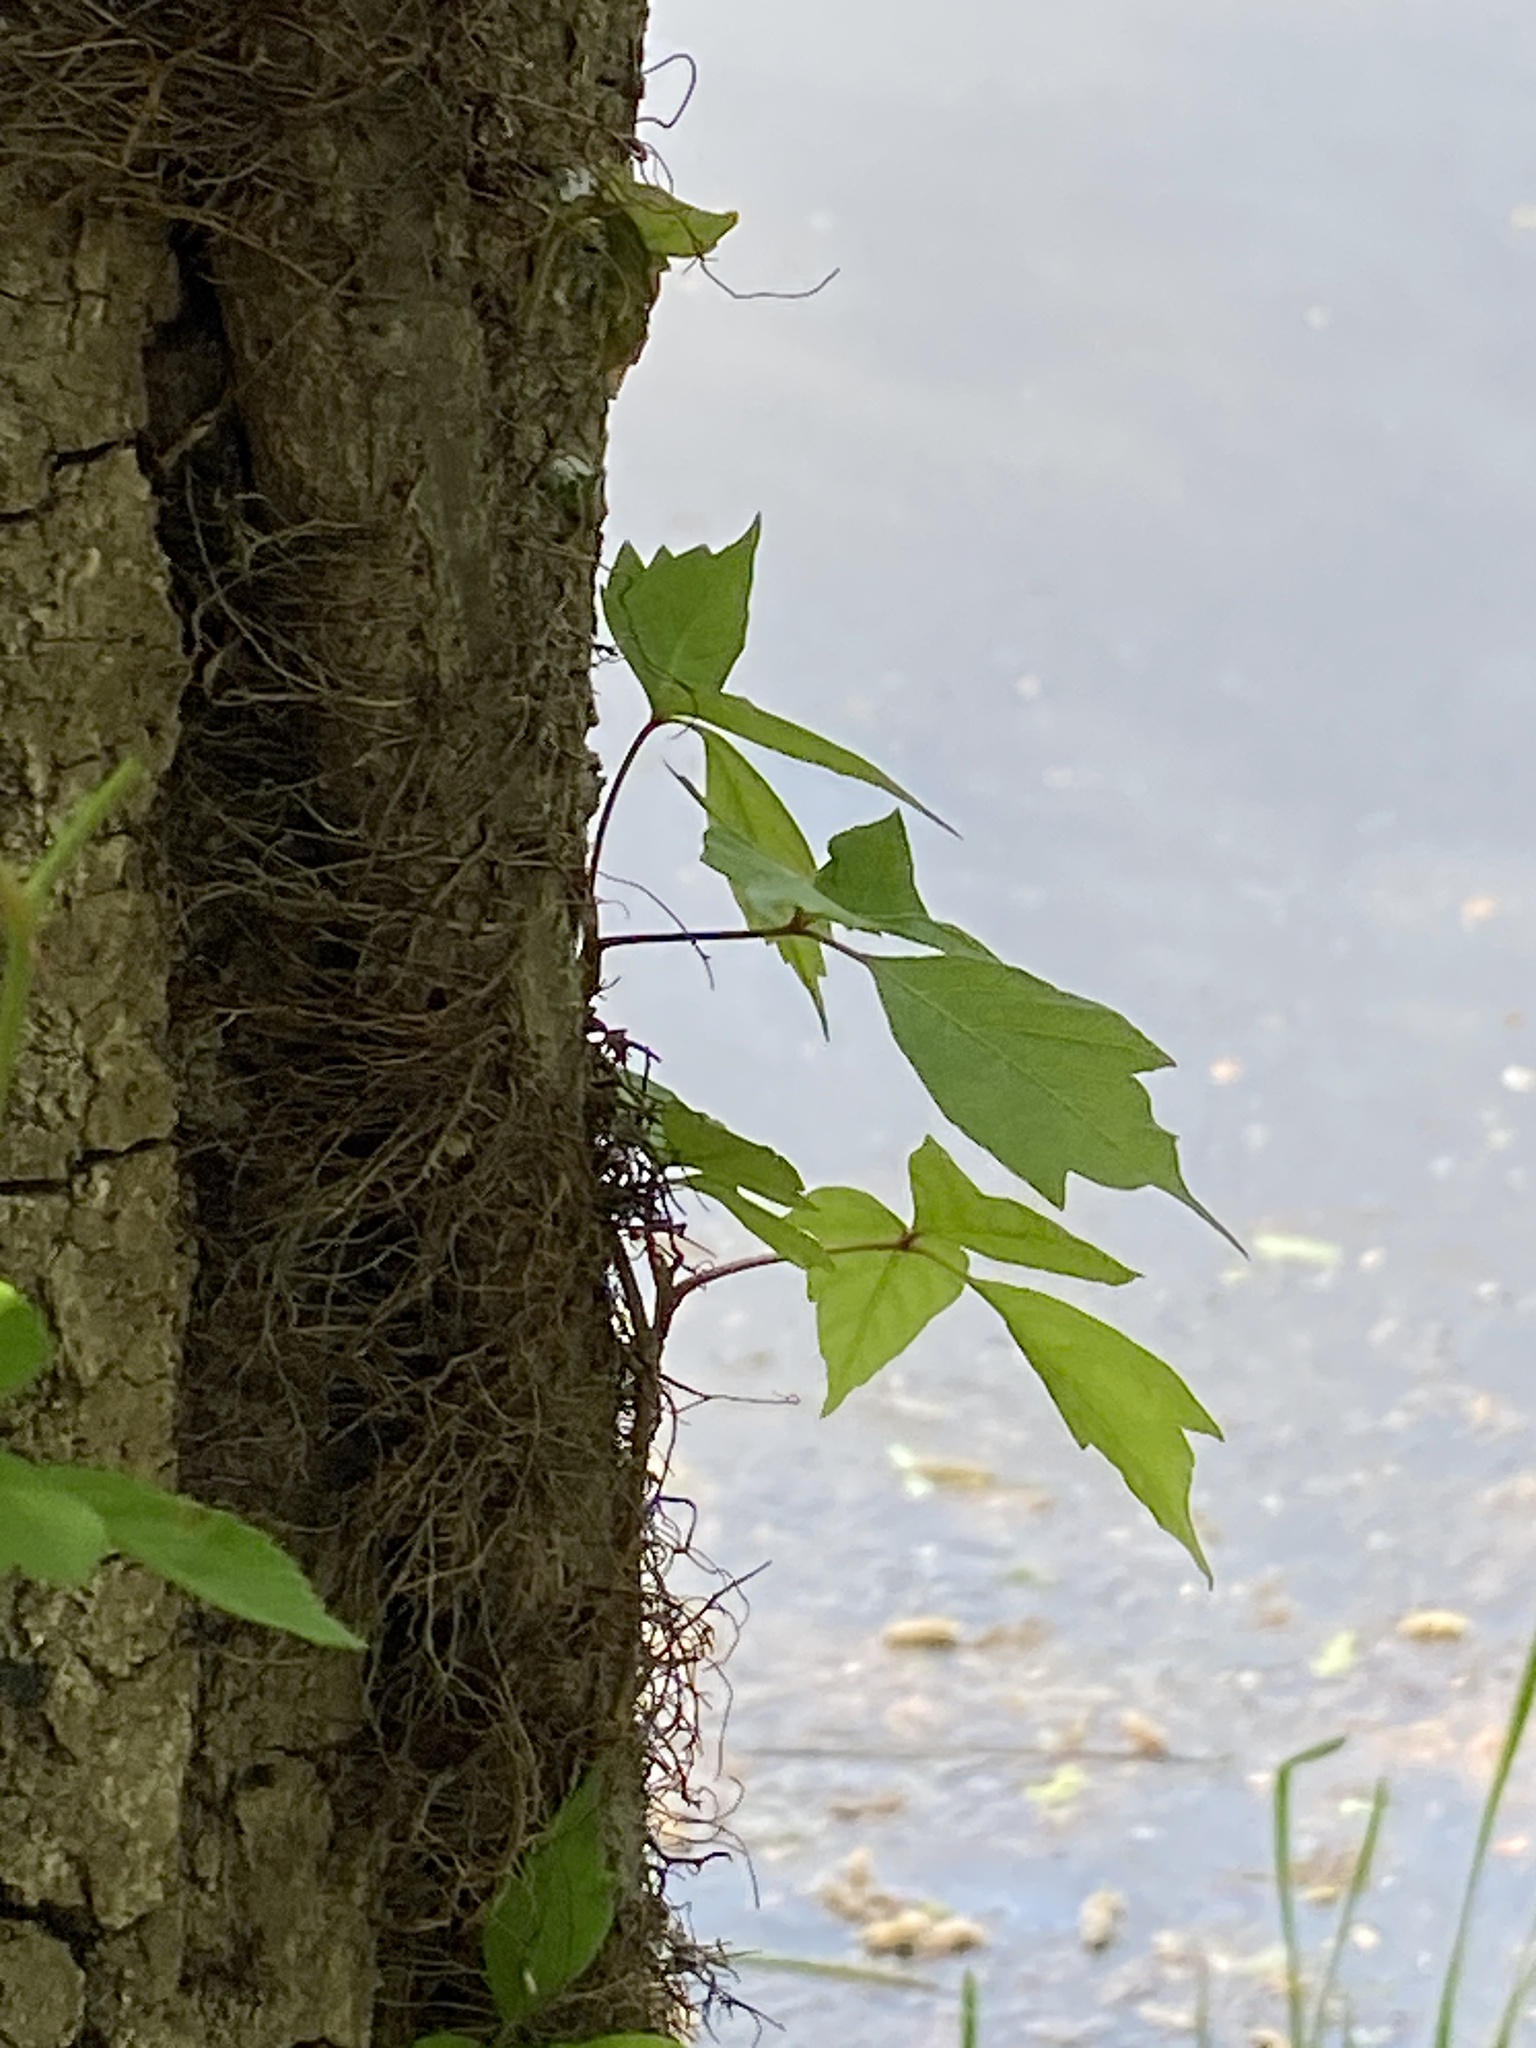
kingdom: Plantae
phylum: Tracheophyta
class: Magnoliopsida
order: Sapindales
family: Anacardiaceae
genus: Toxicodendron
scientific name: Toxicodendron radicans
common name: Poison ivy
